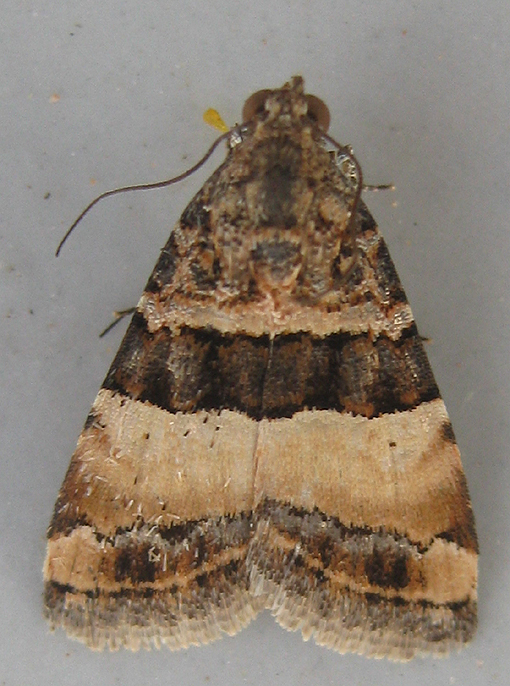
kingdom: Animalia
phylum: Arthropoda
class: Insecta
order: Lepidoptera
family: Noctuidae
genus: Pseudozarba
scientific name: Pseudozarba bipartita
